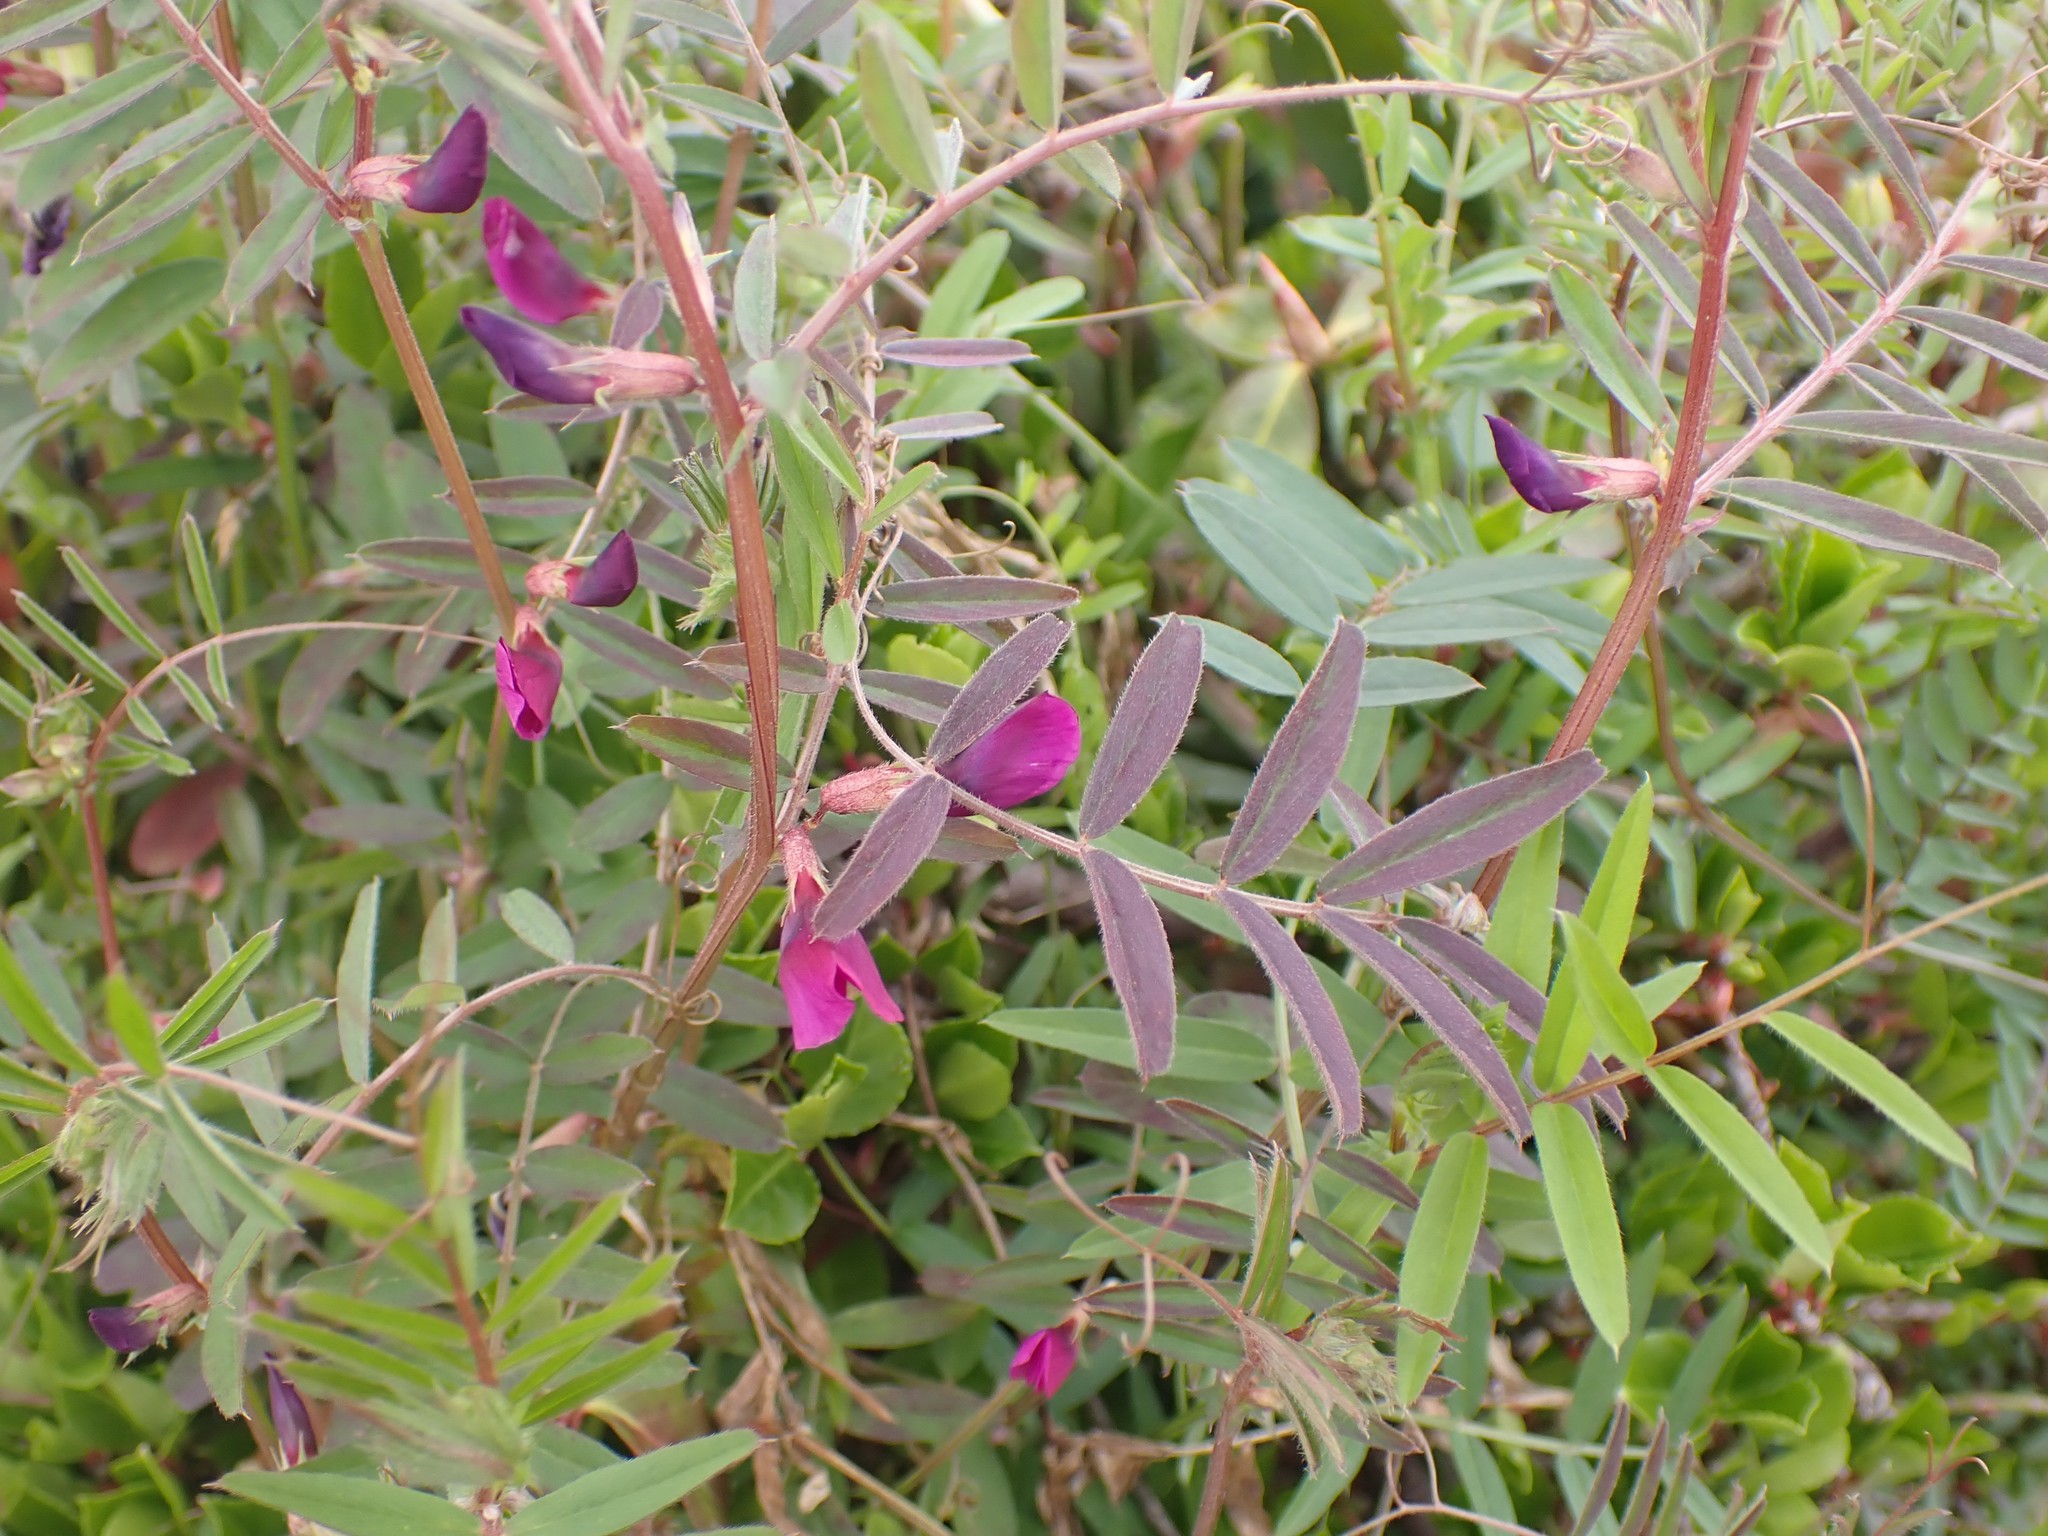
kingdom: Plantae
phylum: Tracheophyta
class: Magnoliopsida
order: Fabales
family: Fabaceae
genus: Vicia
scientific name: Vicia sativa
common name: Garden vetch
